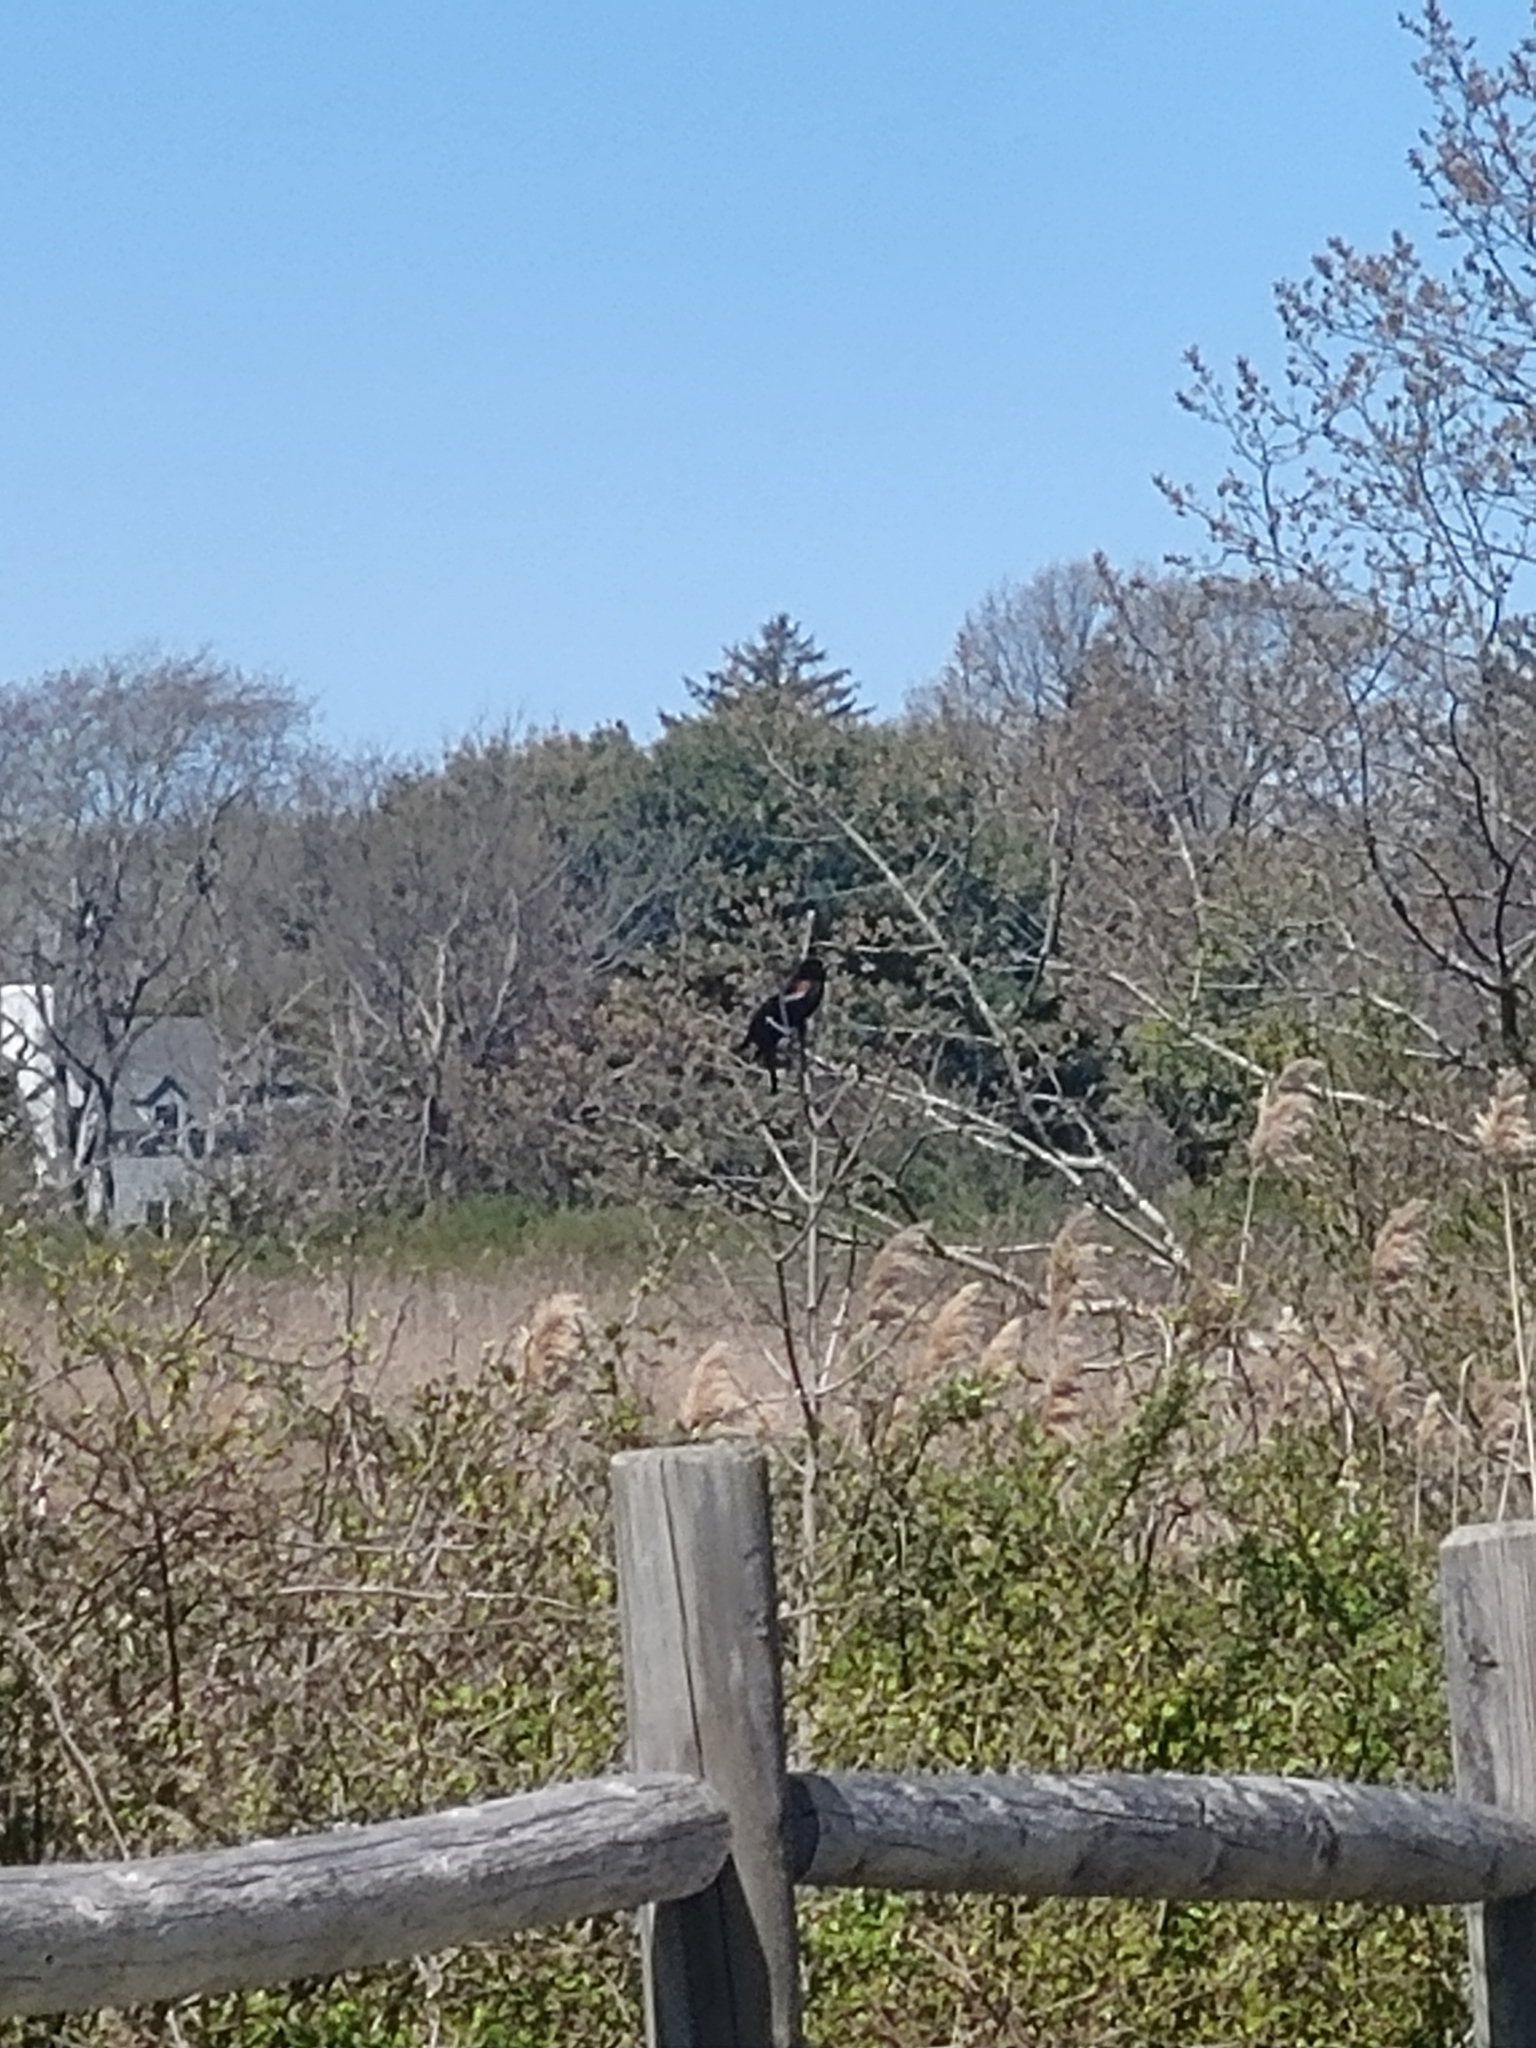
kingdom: Animalia
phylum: Chordata
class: Aves
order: Passeriformes
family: Icteridae
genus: Agelaius
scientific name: Agelaius phoeniceus
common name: Red-winged blackbird
